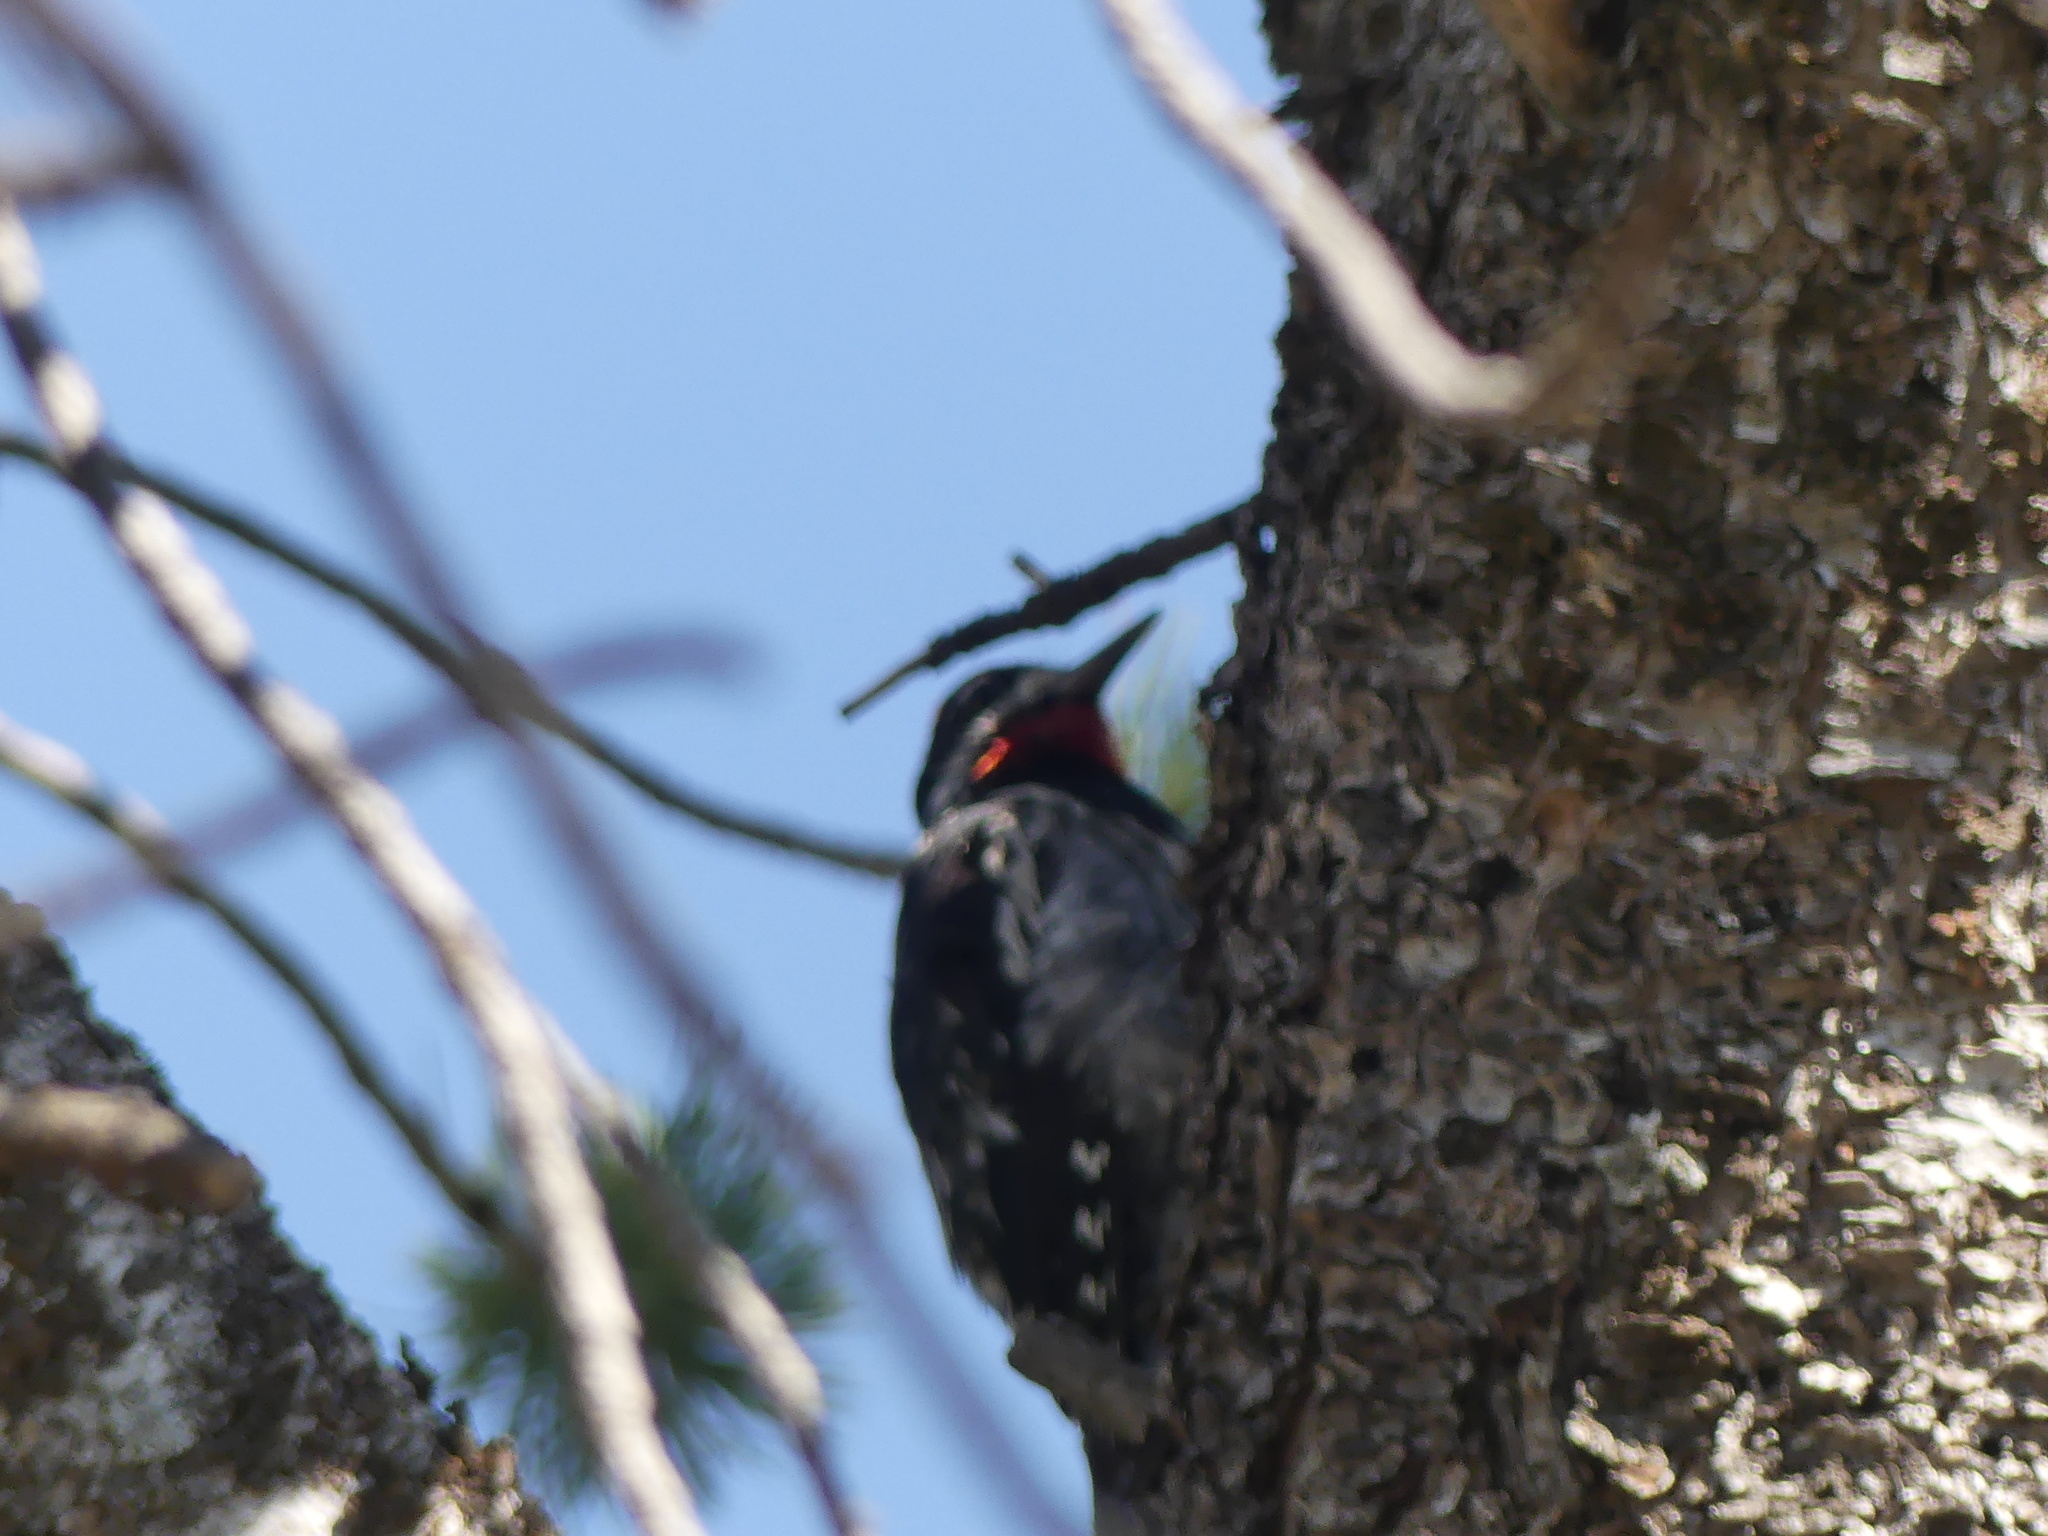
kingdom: Animalia
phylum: Chordata
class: Aves
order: Piciformes
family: Picidae
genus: Sphyrapicus
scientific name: Sphyrapicus nuchalis
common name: Red-naped sapsucker
